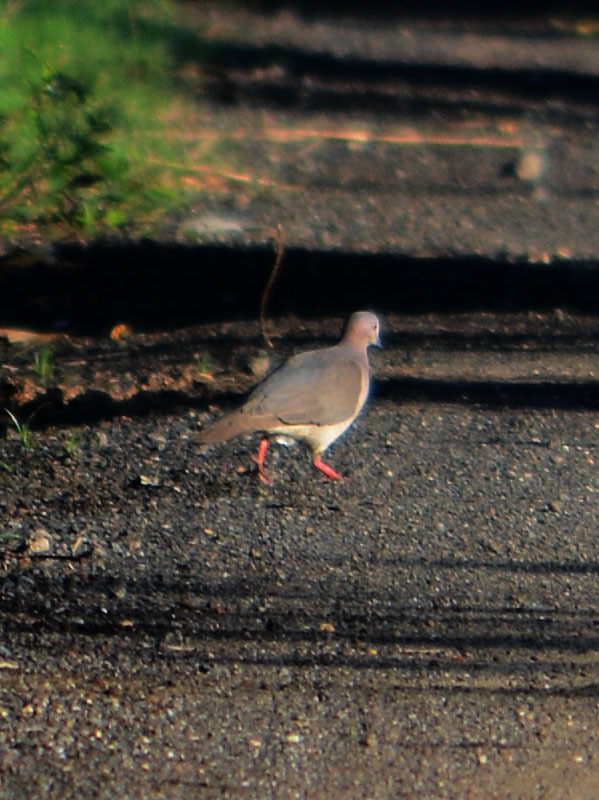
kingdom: Animalia
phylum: Chordata
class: Aves
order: Columbiformes
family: Columbidae
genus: Leptotila
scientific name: Leptotila verreauxi
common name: White-tipped dove
